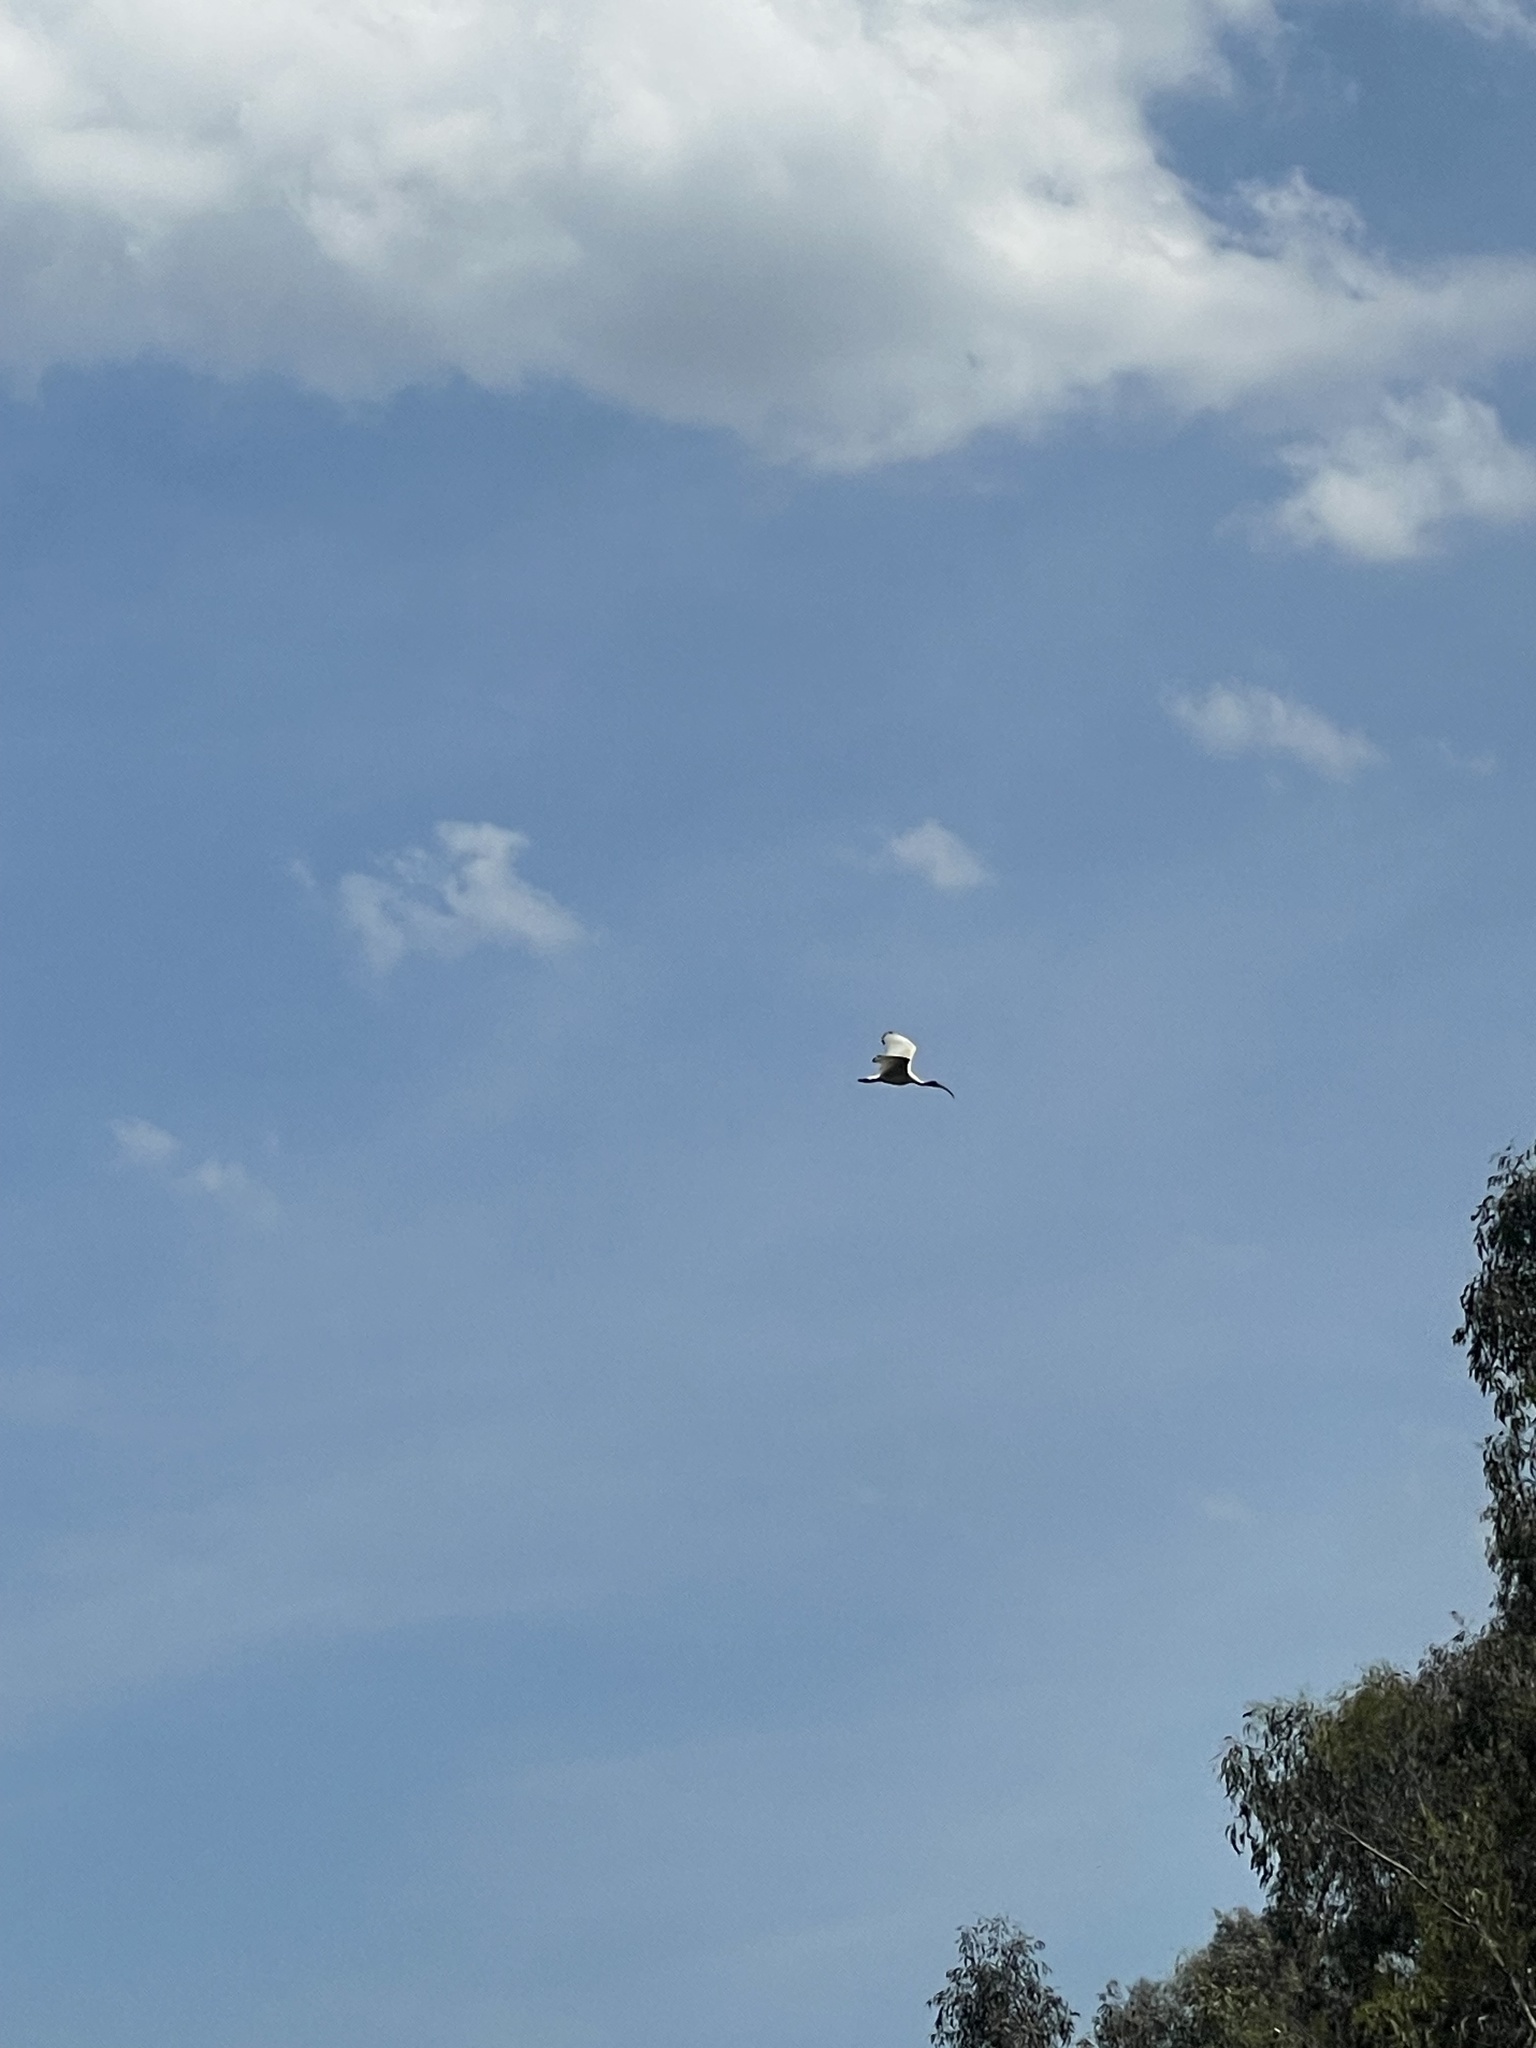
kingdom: Animalia
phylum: Chordata
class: Aves
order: Pelecaniformes
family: Threskiornithidae
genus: Threskiornis
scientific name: Threskiornis molucca
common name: Australian white ibis
